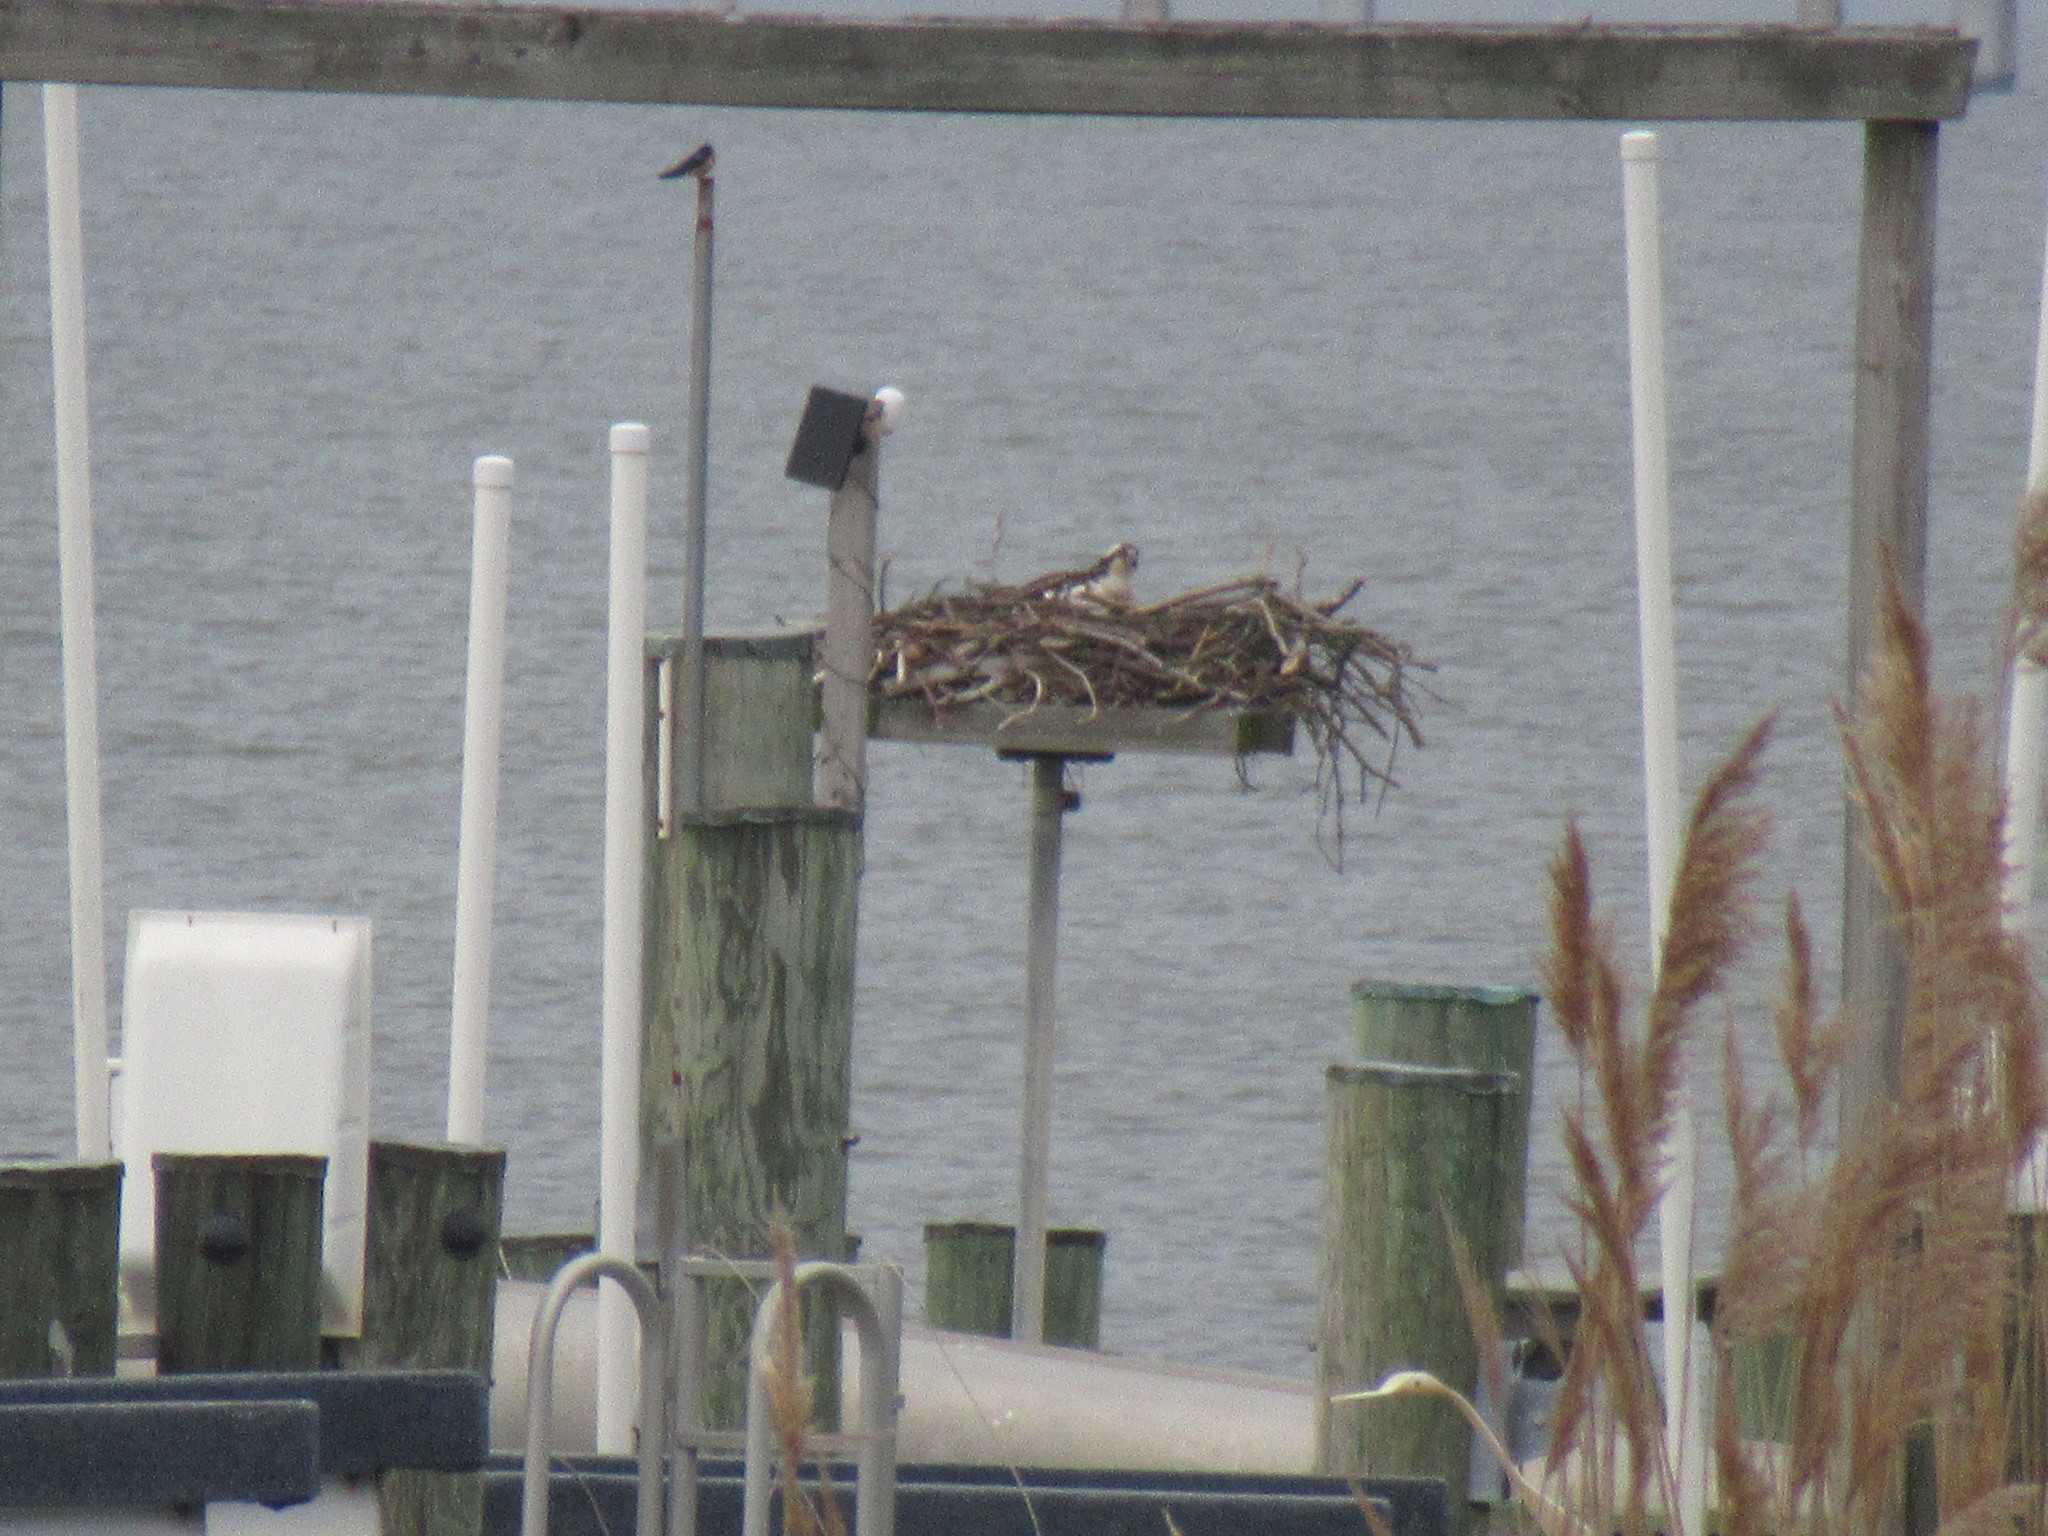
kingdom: Animalia
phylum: Chordata
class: Aves
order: Accipitriformes
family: Pandionidae
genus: Pandion
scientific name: Pandion haliaetus
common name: Osprey
